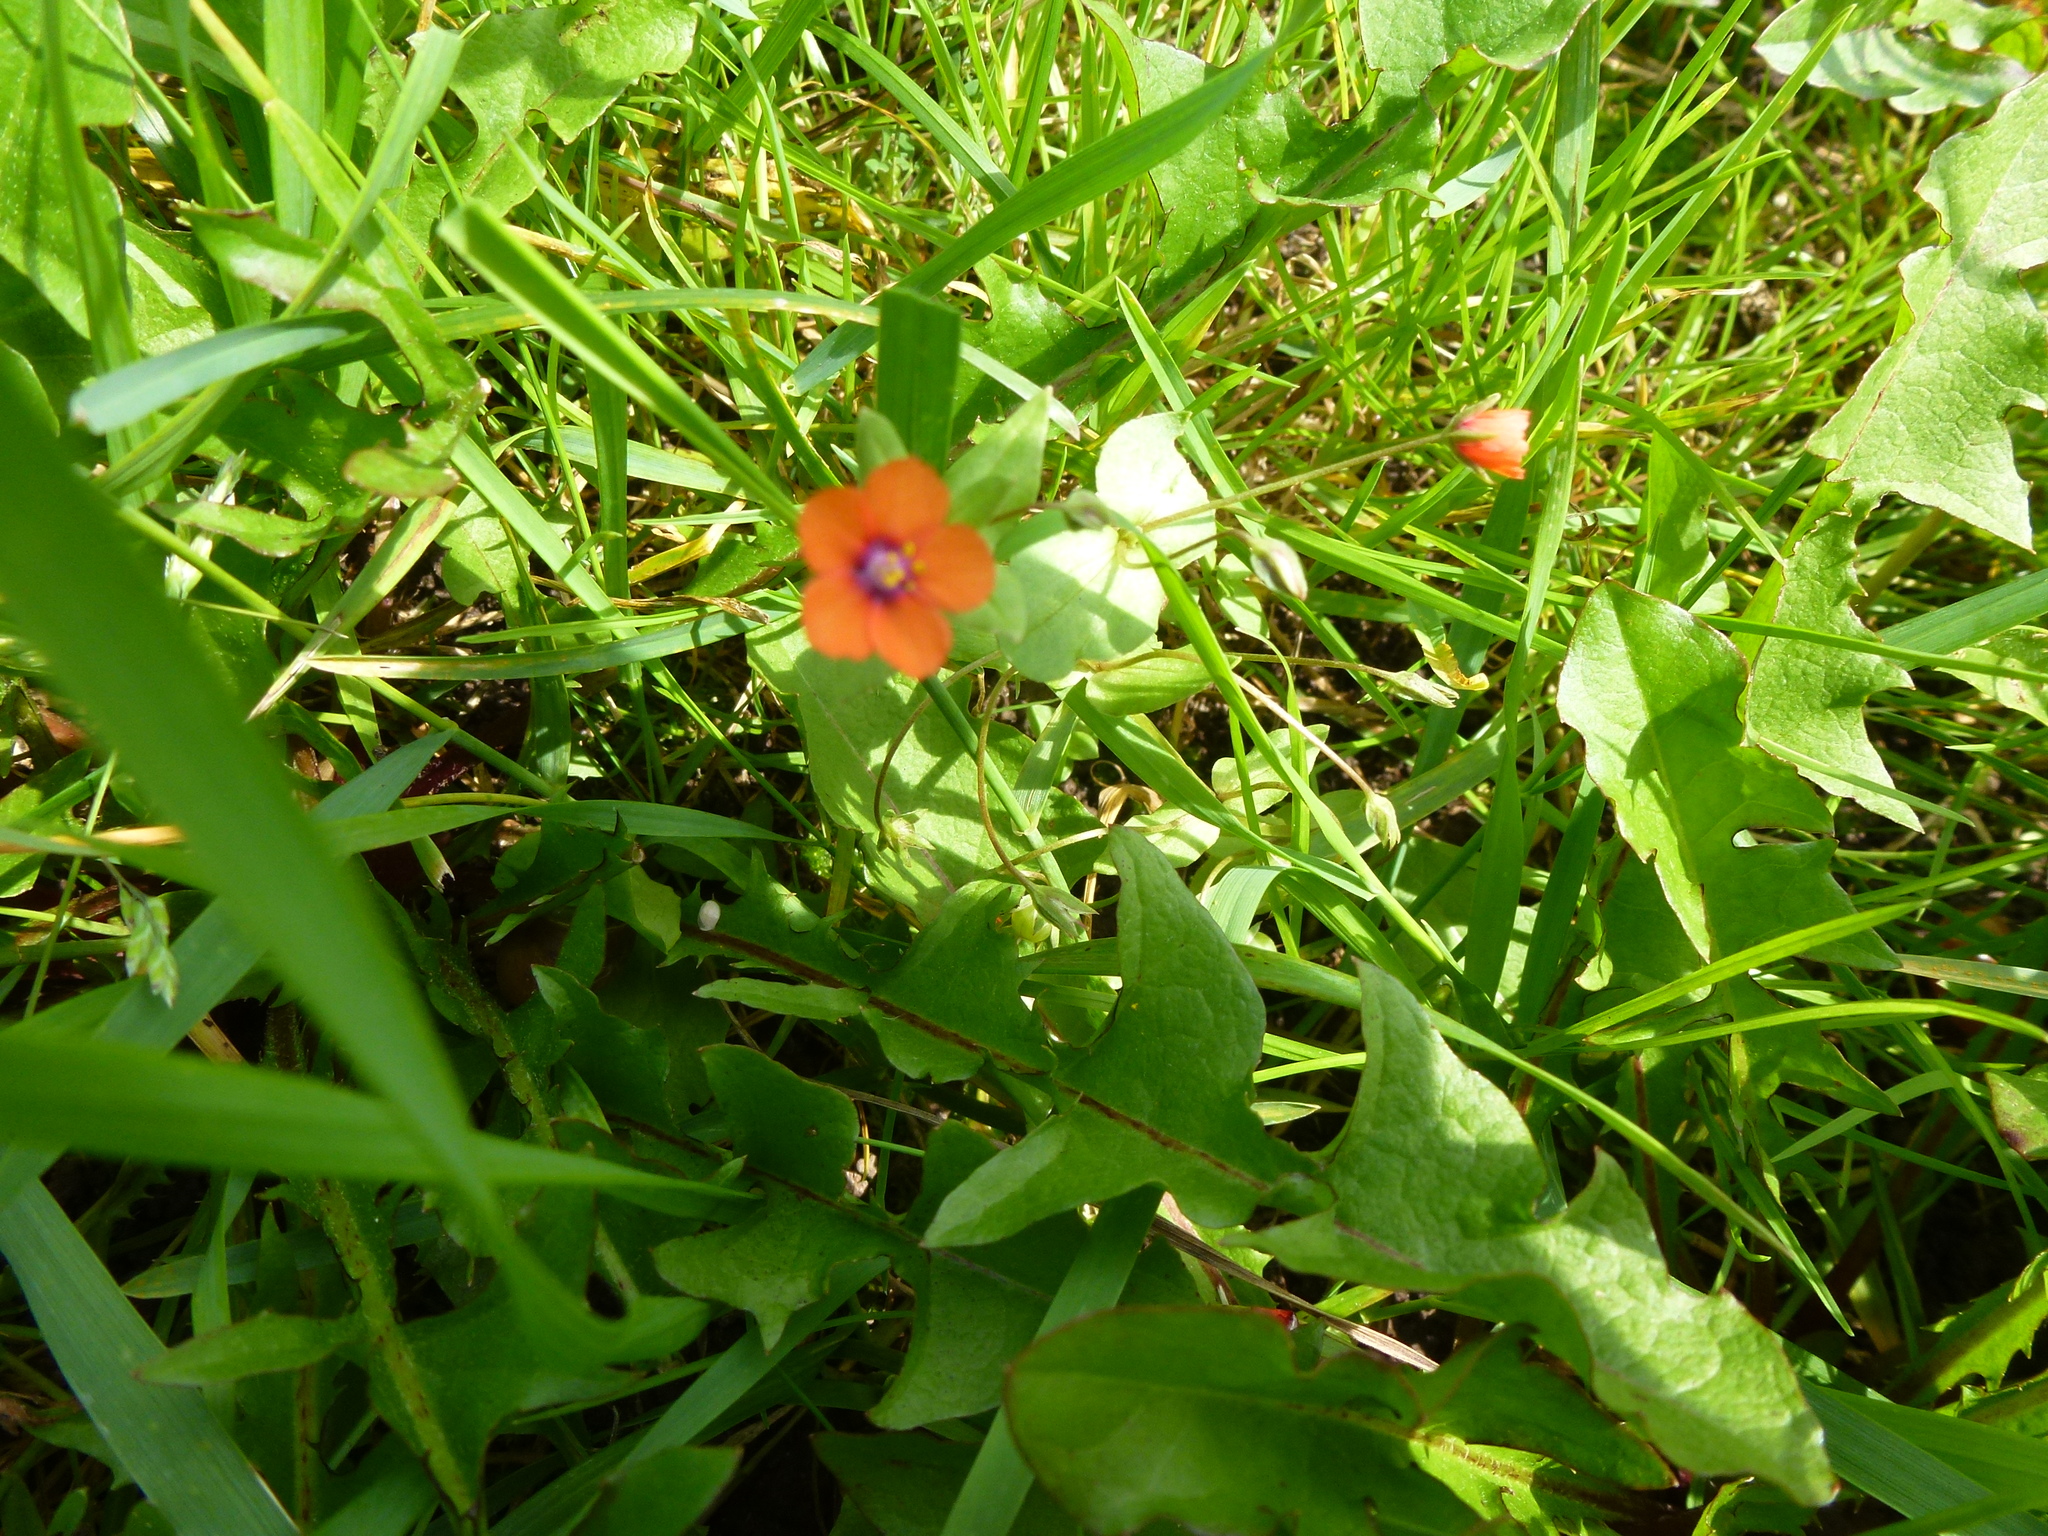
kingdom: Plantae
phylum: Tracheophyta
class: Magnoliopsida
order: Ericales
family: Primulaceae
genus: Lysimachia
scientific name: Lysimachia arvensis
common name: Scarlet pimpernel
